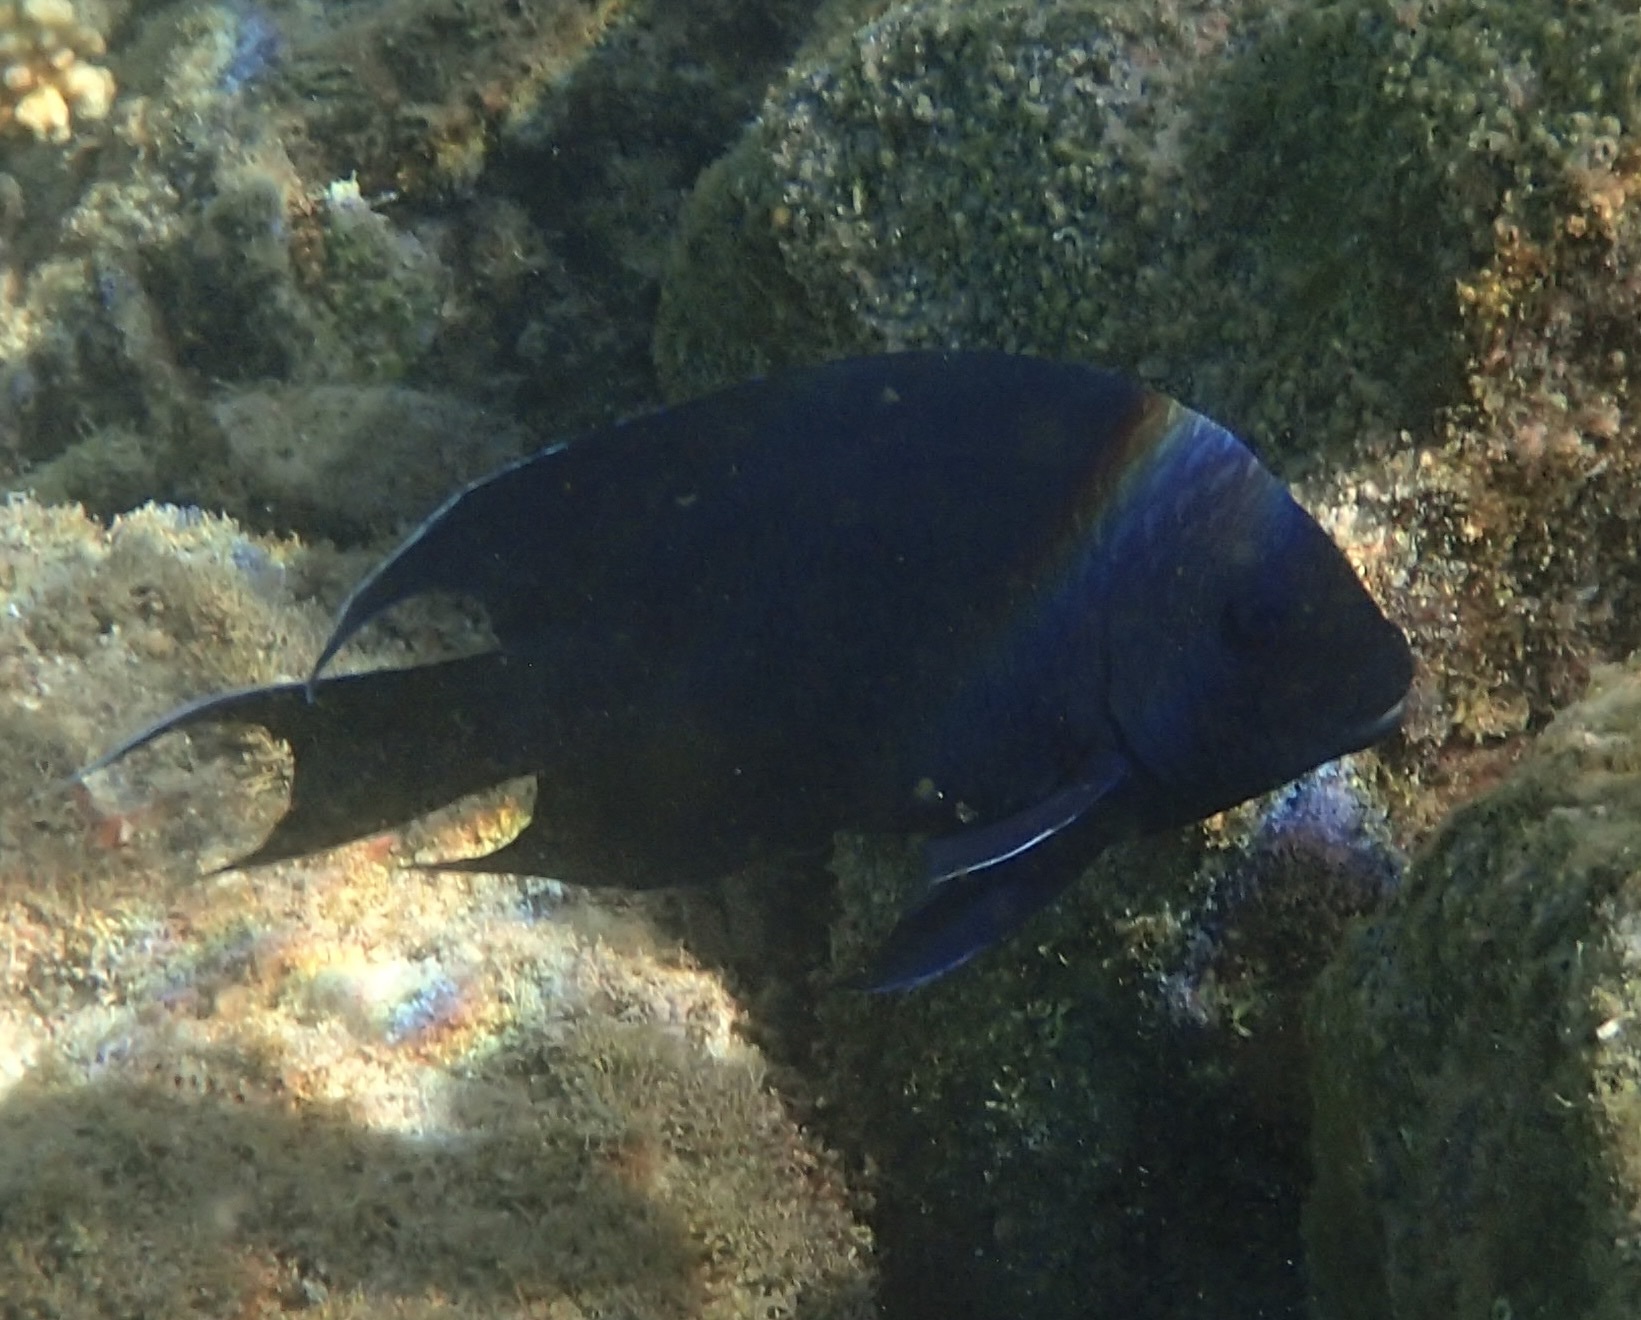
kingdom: Animalia
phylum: Chordata
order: Perciformes
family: Pomacentridae
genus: Microspathodon
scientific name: Microspathodon dorsalis
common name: Giant damselfish
